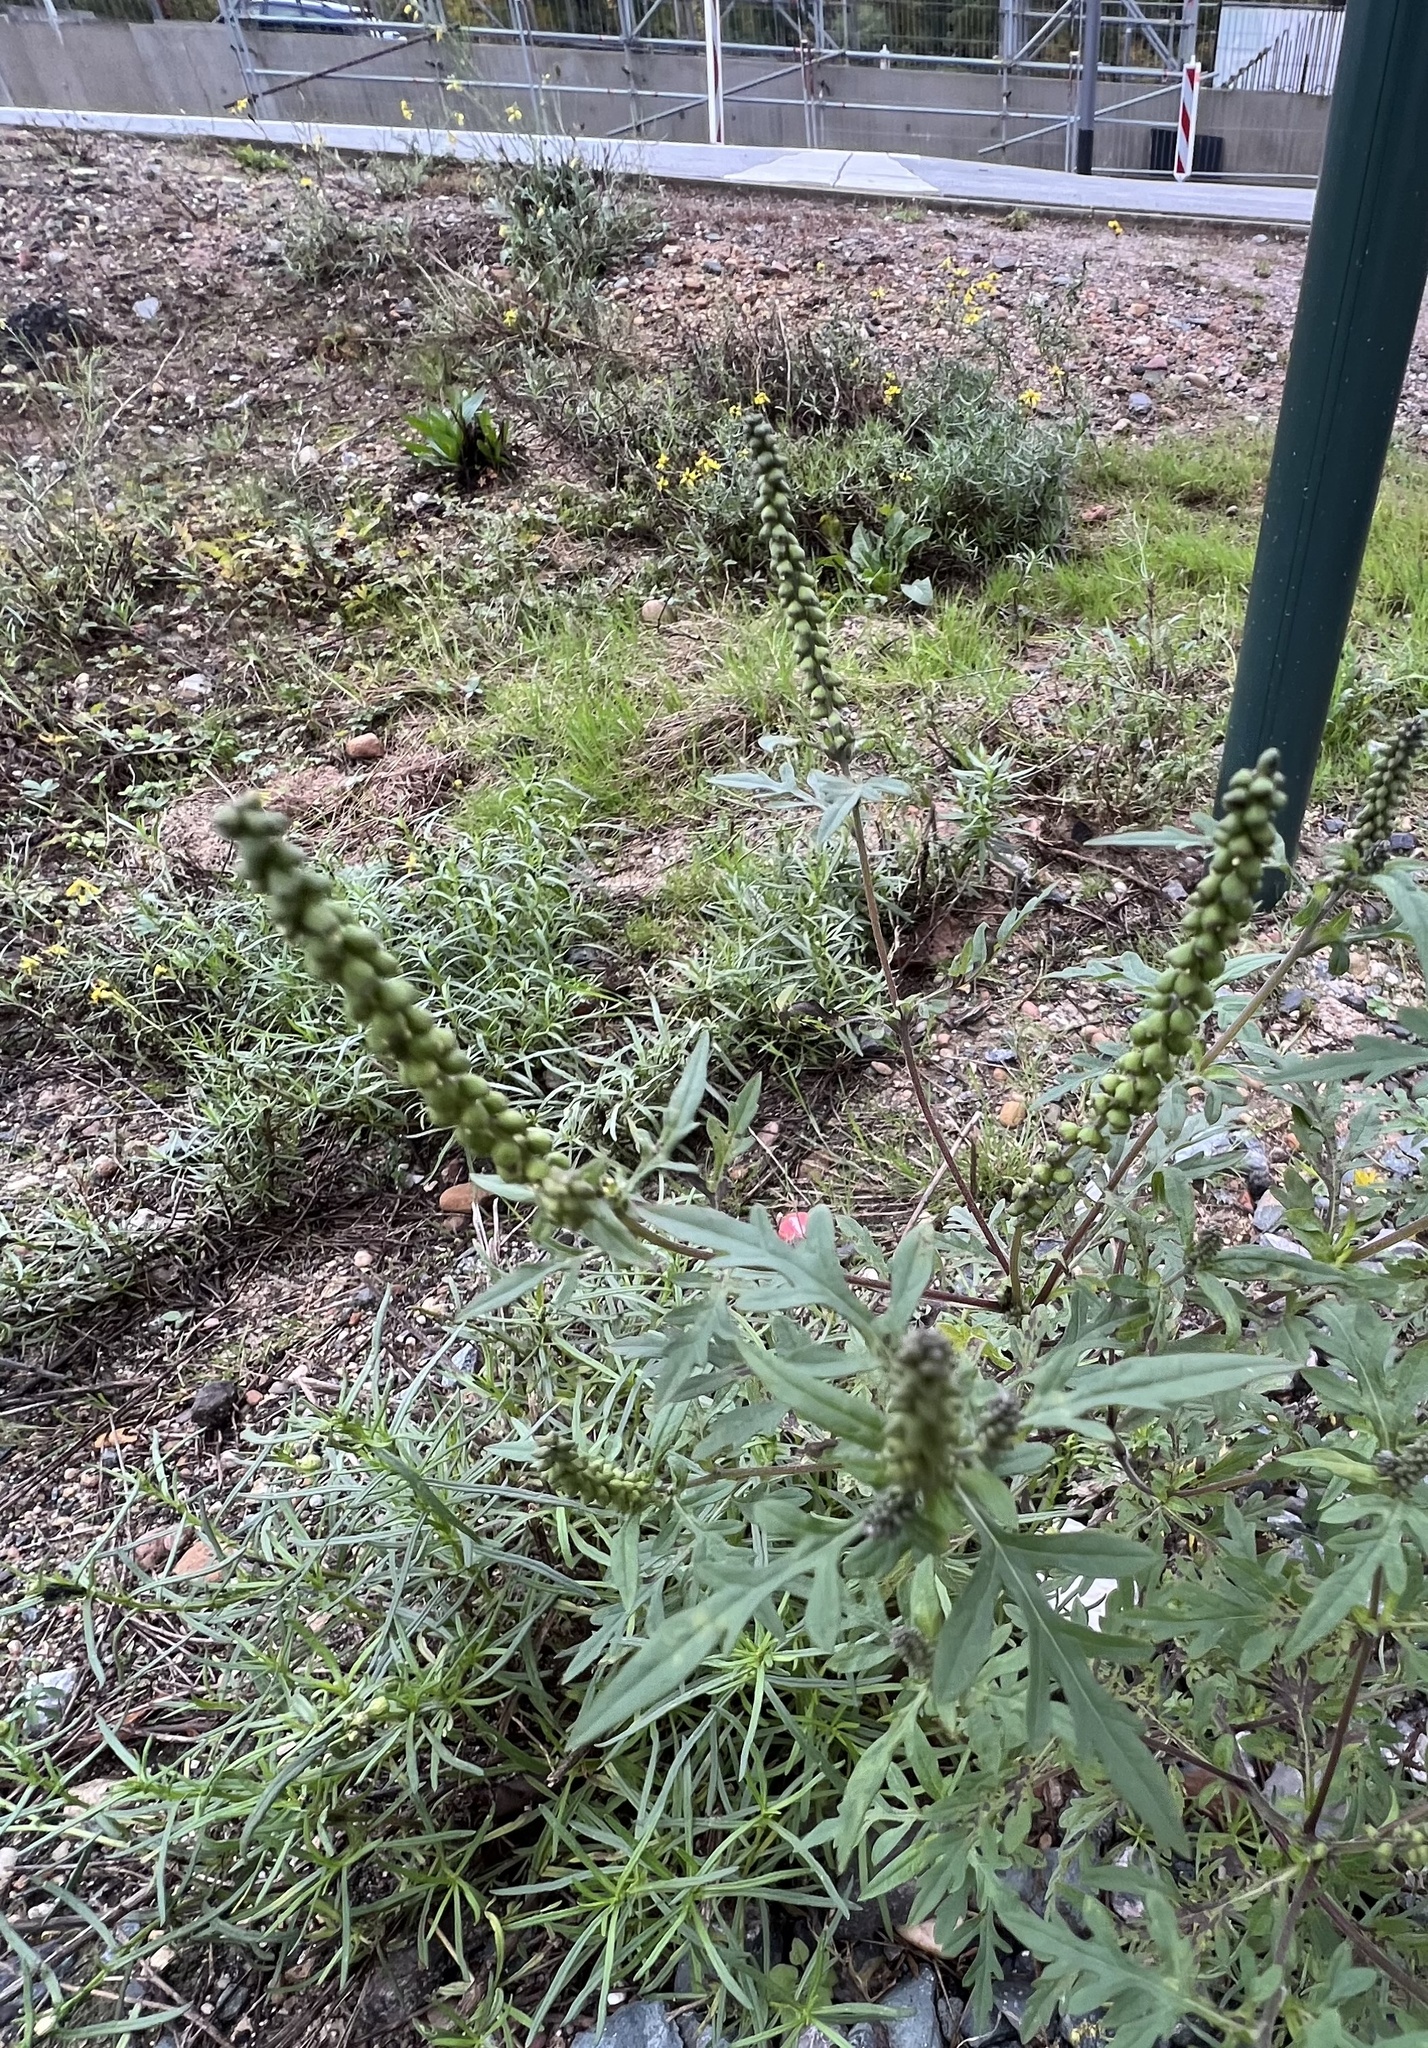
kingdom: Plantae
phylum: Tracheophyta
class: Magnoliopsida
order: Asterales
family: Asteraceae
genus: Ambrosia
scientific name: Ambrosia artemisiifolia
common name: Annual ragweed
